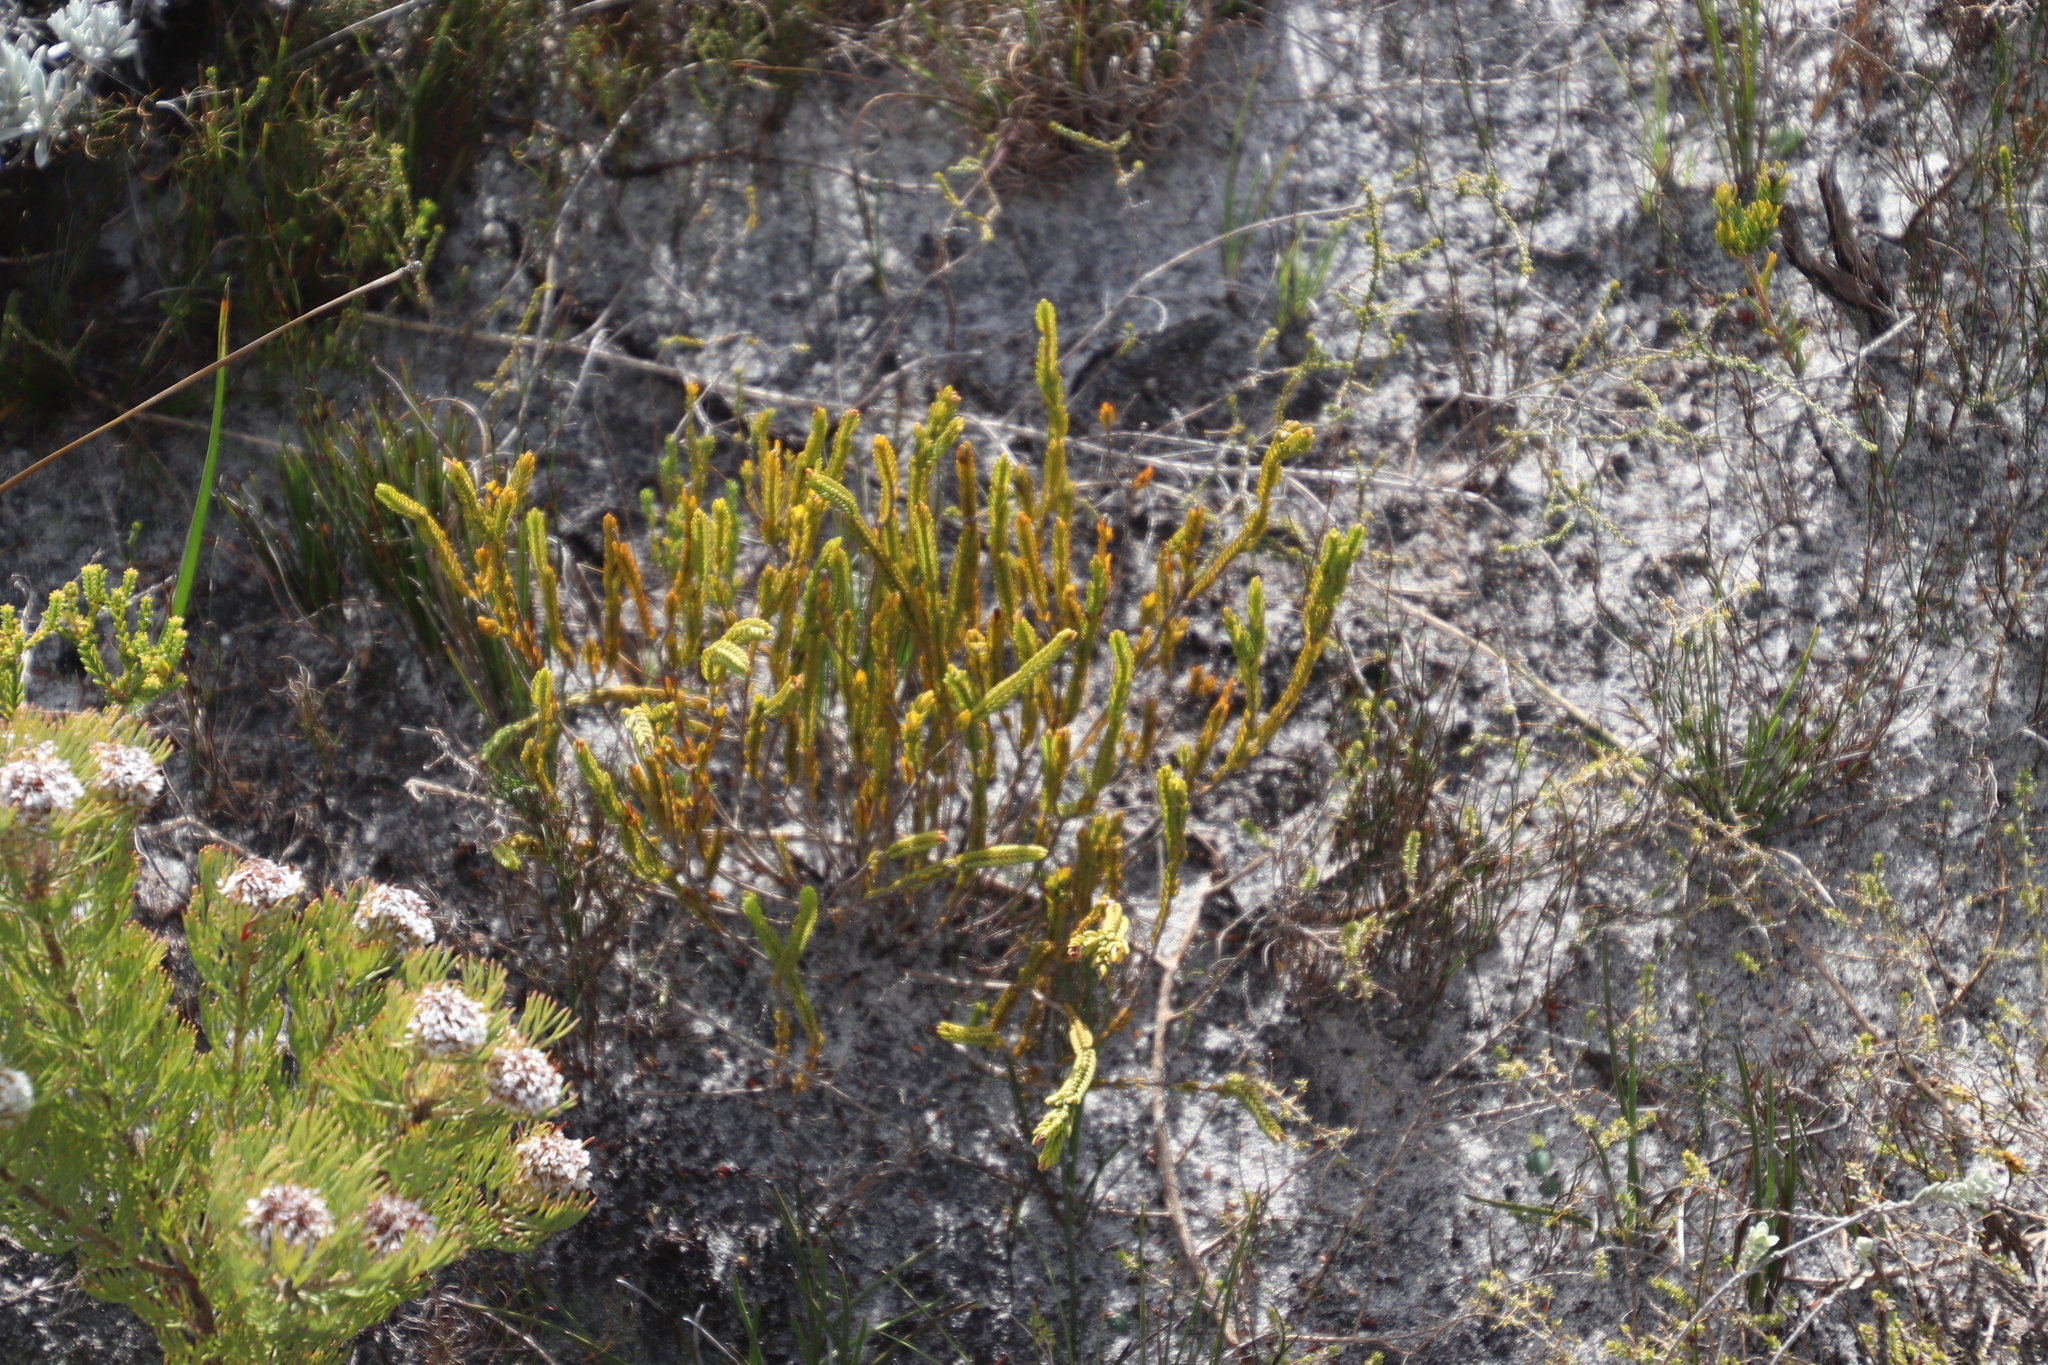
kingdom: Plantae
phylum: Tracheophyta
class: Magnoliopsida
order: Malvales
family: Thymelaeaceae
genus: Lachnaea
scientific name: Lachnaea grandiflora
